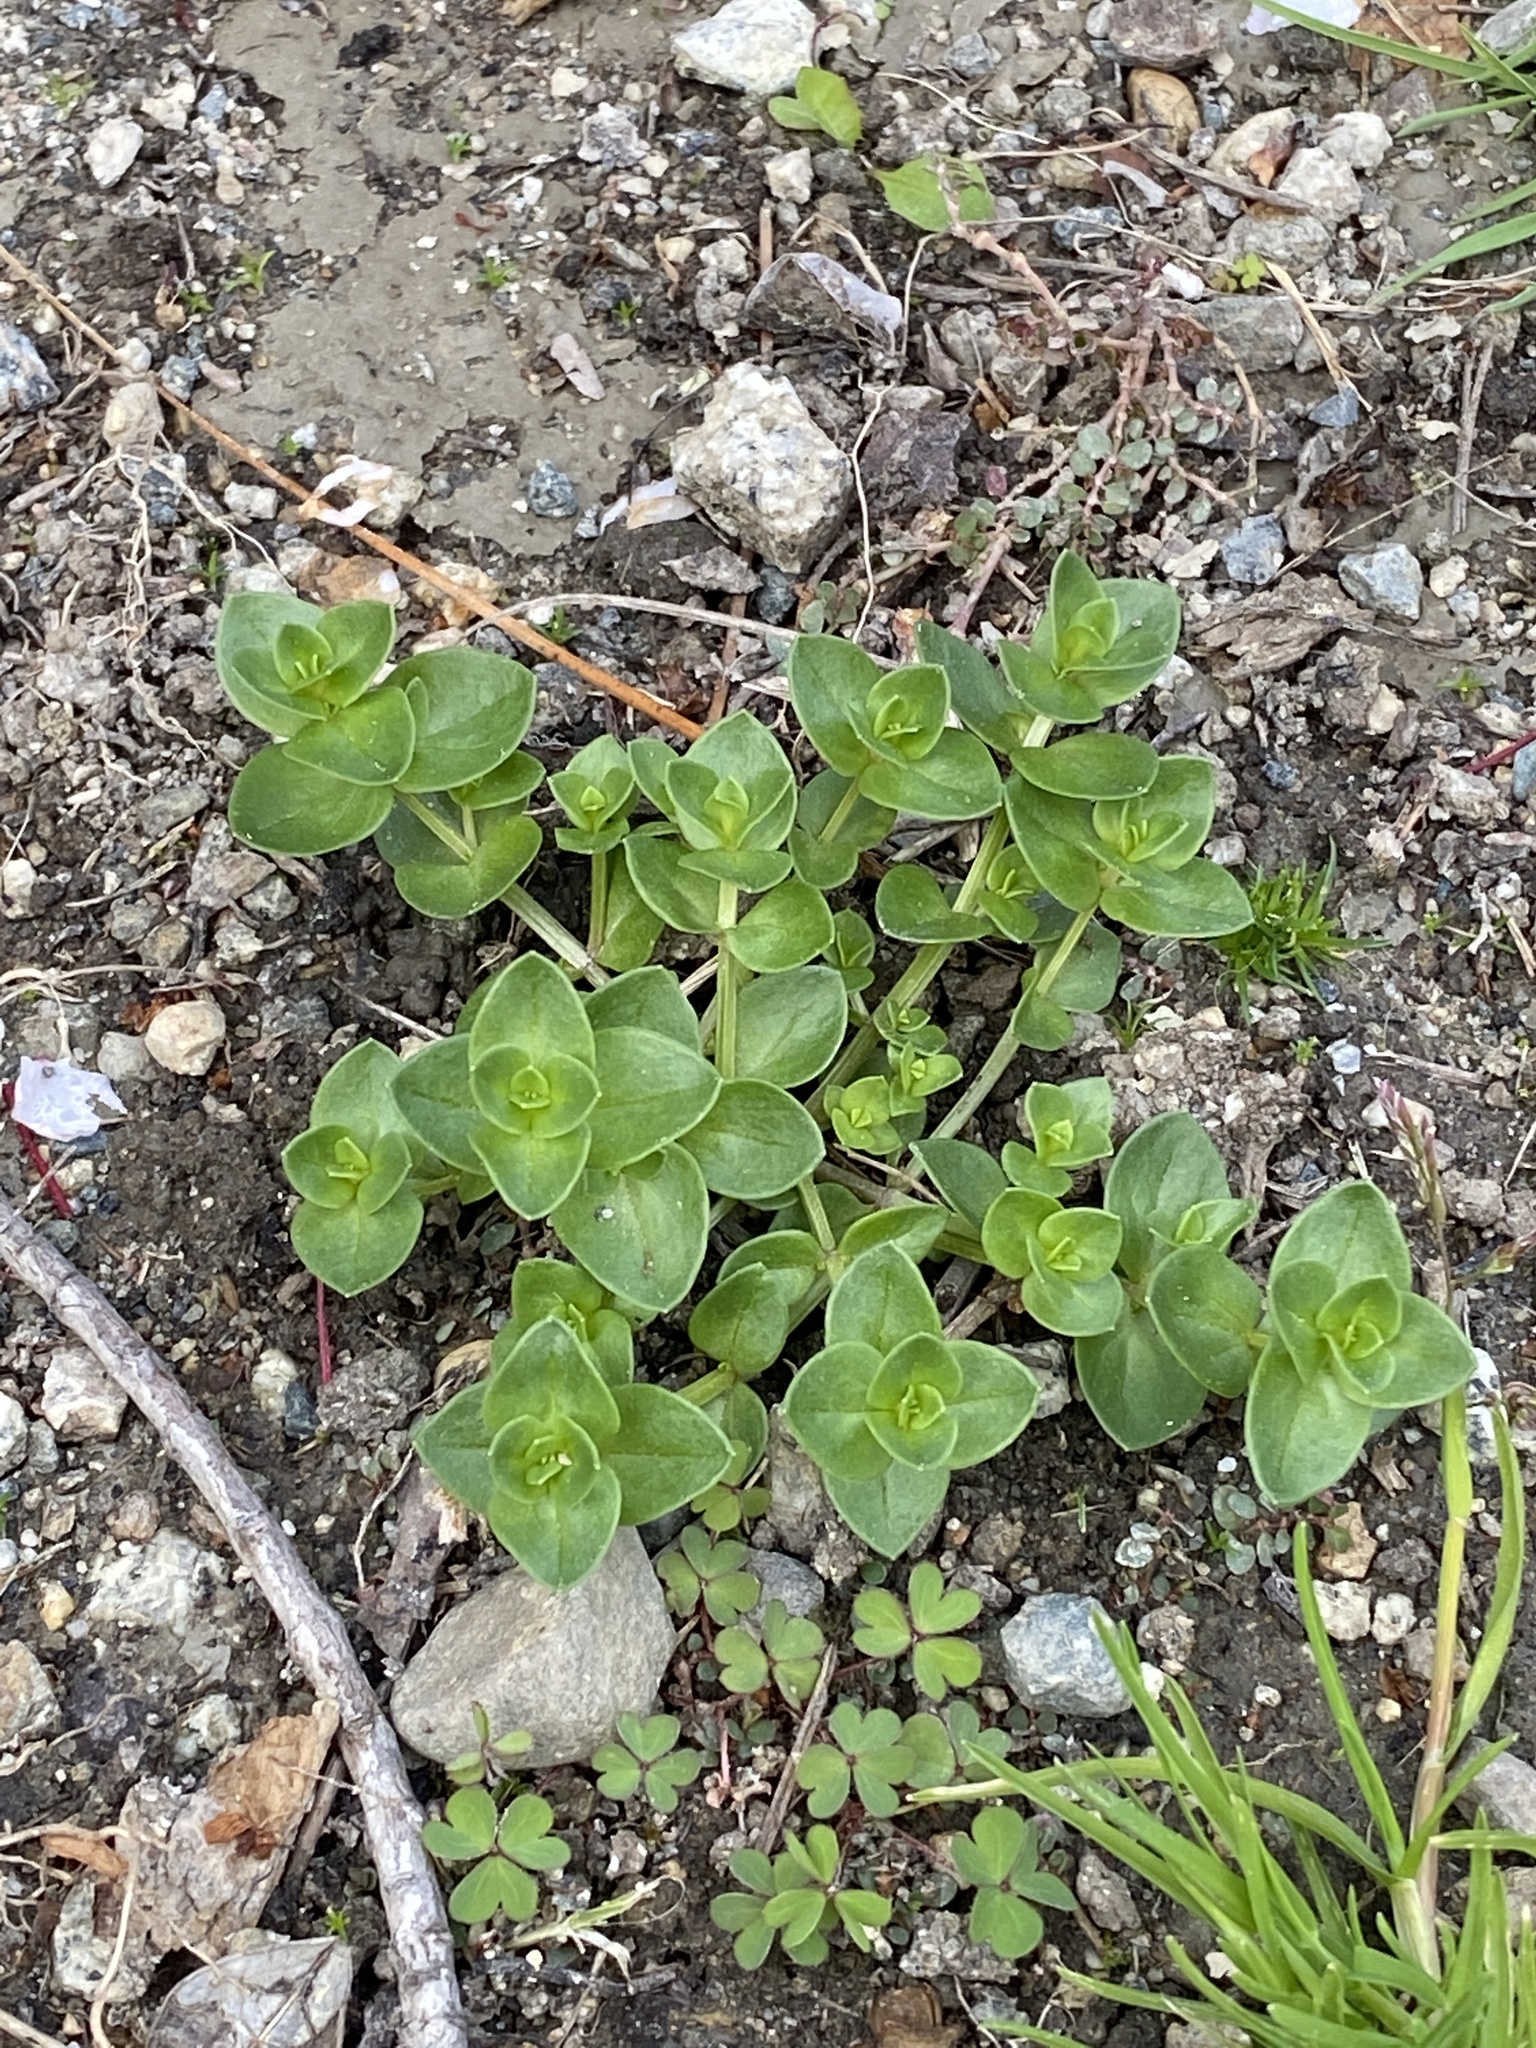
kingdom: Plantae
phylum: Tracheophyta
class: Magnoliopsida
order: Ericales
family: Primulaceae
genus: Lysimachia
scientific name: Lysimachia arvensis
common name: Scarlet pimpernel
